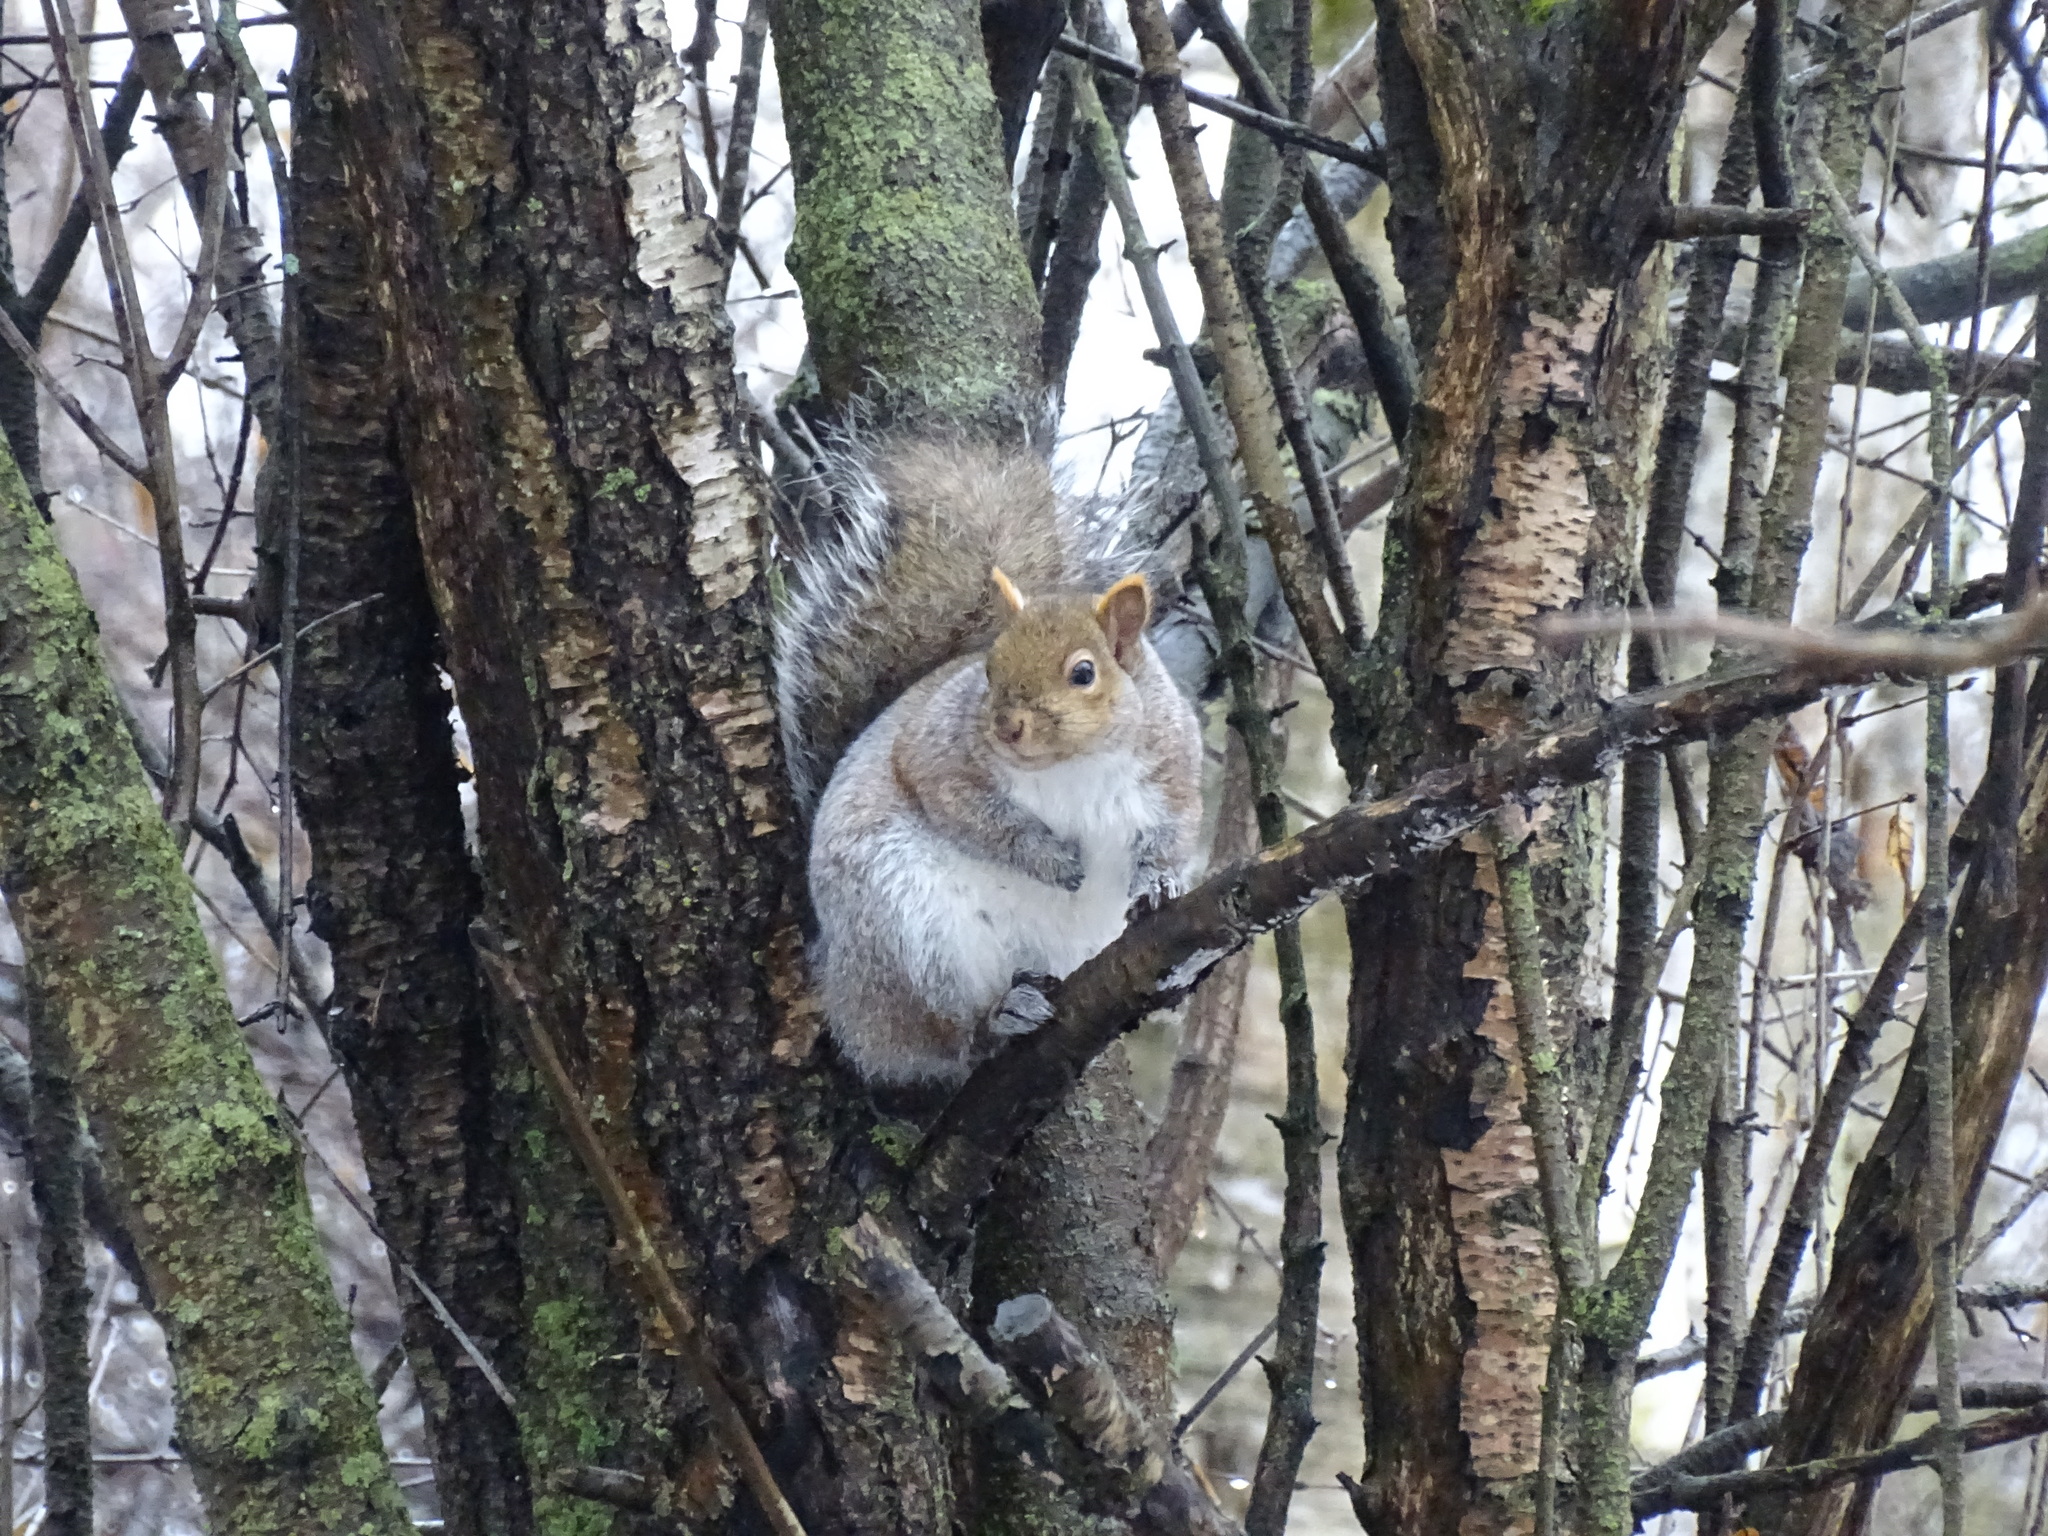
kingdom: Animalia
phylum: Chordata
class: Mammalia
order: Rodentia
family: Sciuridae
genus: Sciurus
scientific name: Sciurus carolinensis
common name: Eastern gray squirrel
